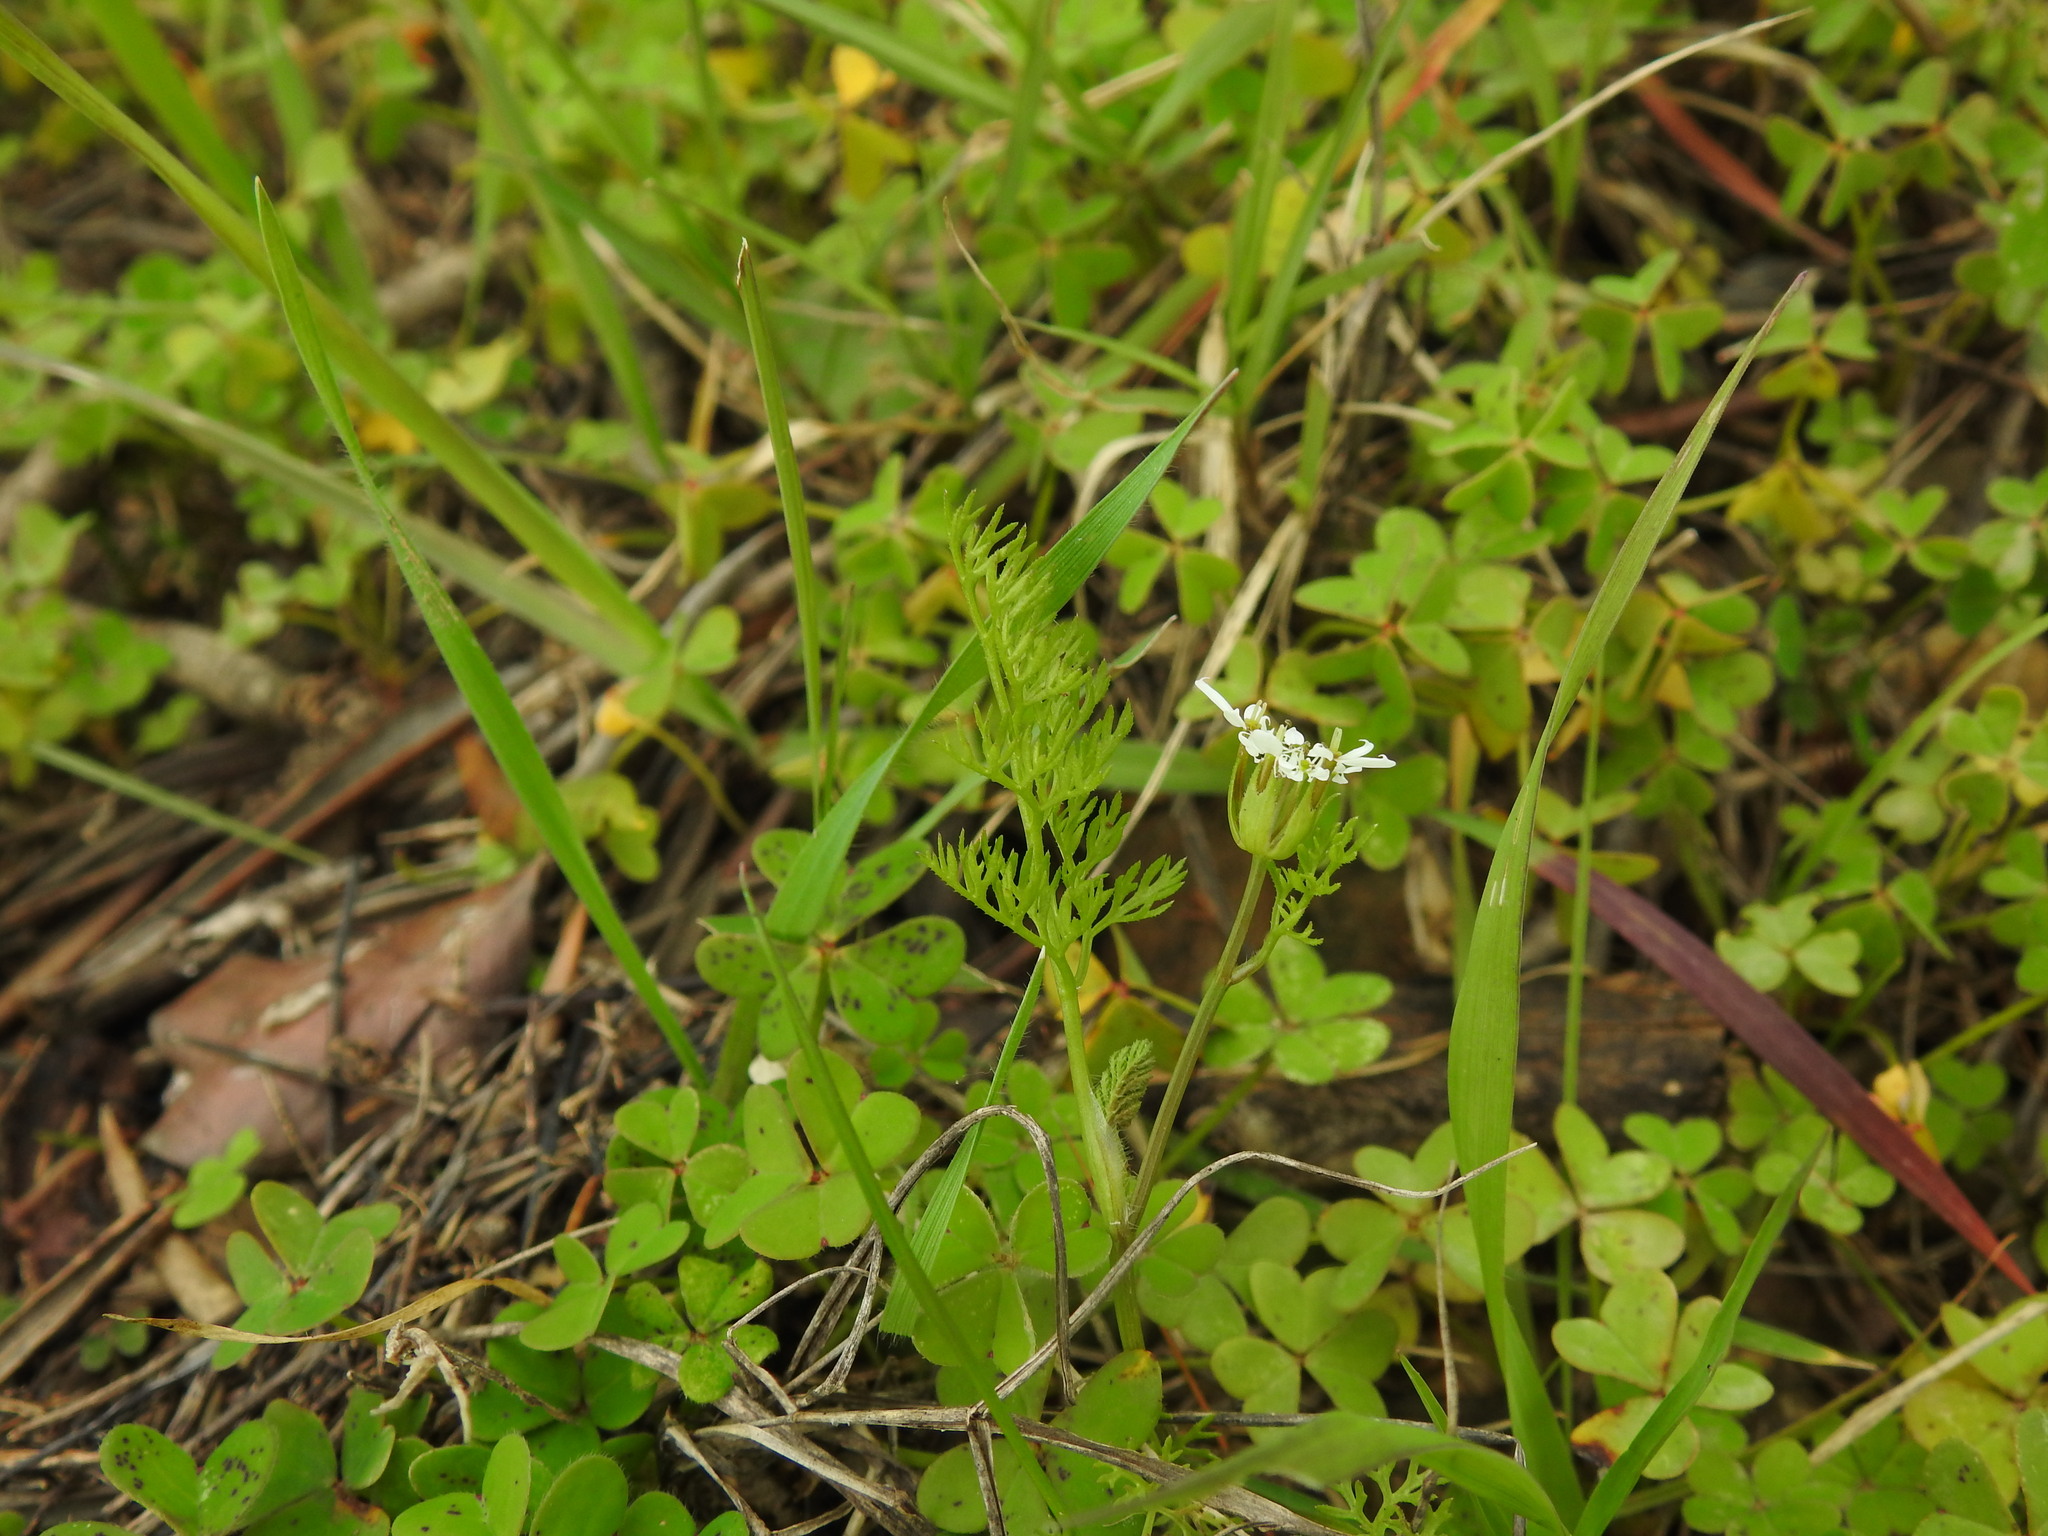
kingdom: Plantae
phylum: Tracheophyta
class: Magnoliopsida
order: Apiales
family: Apiaceae
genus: Scandix
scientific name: Scandix pecten-veneris
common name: Shepherd's-needle
